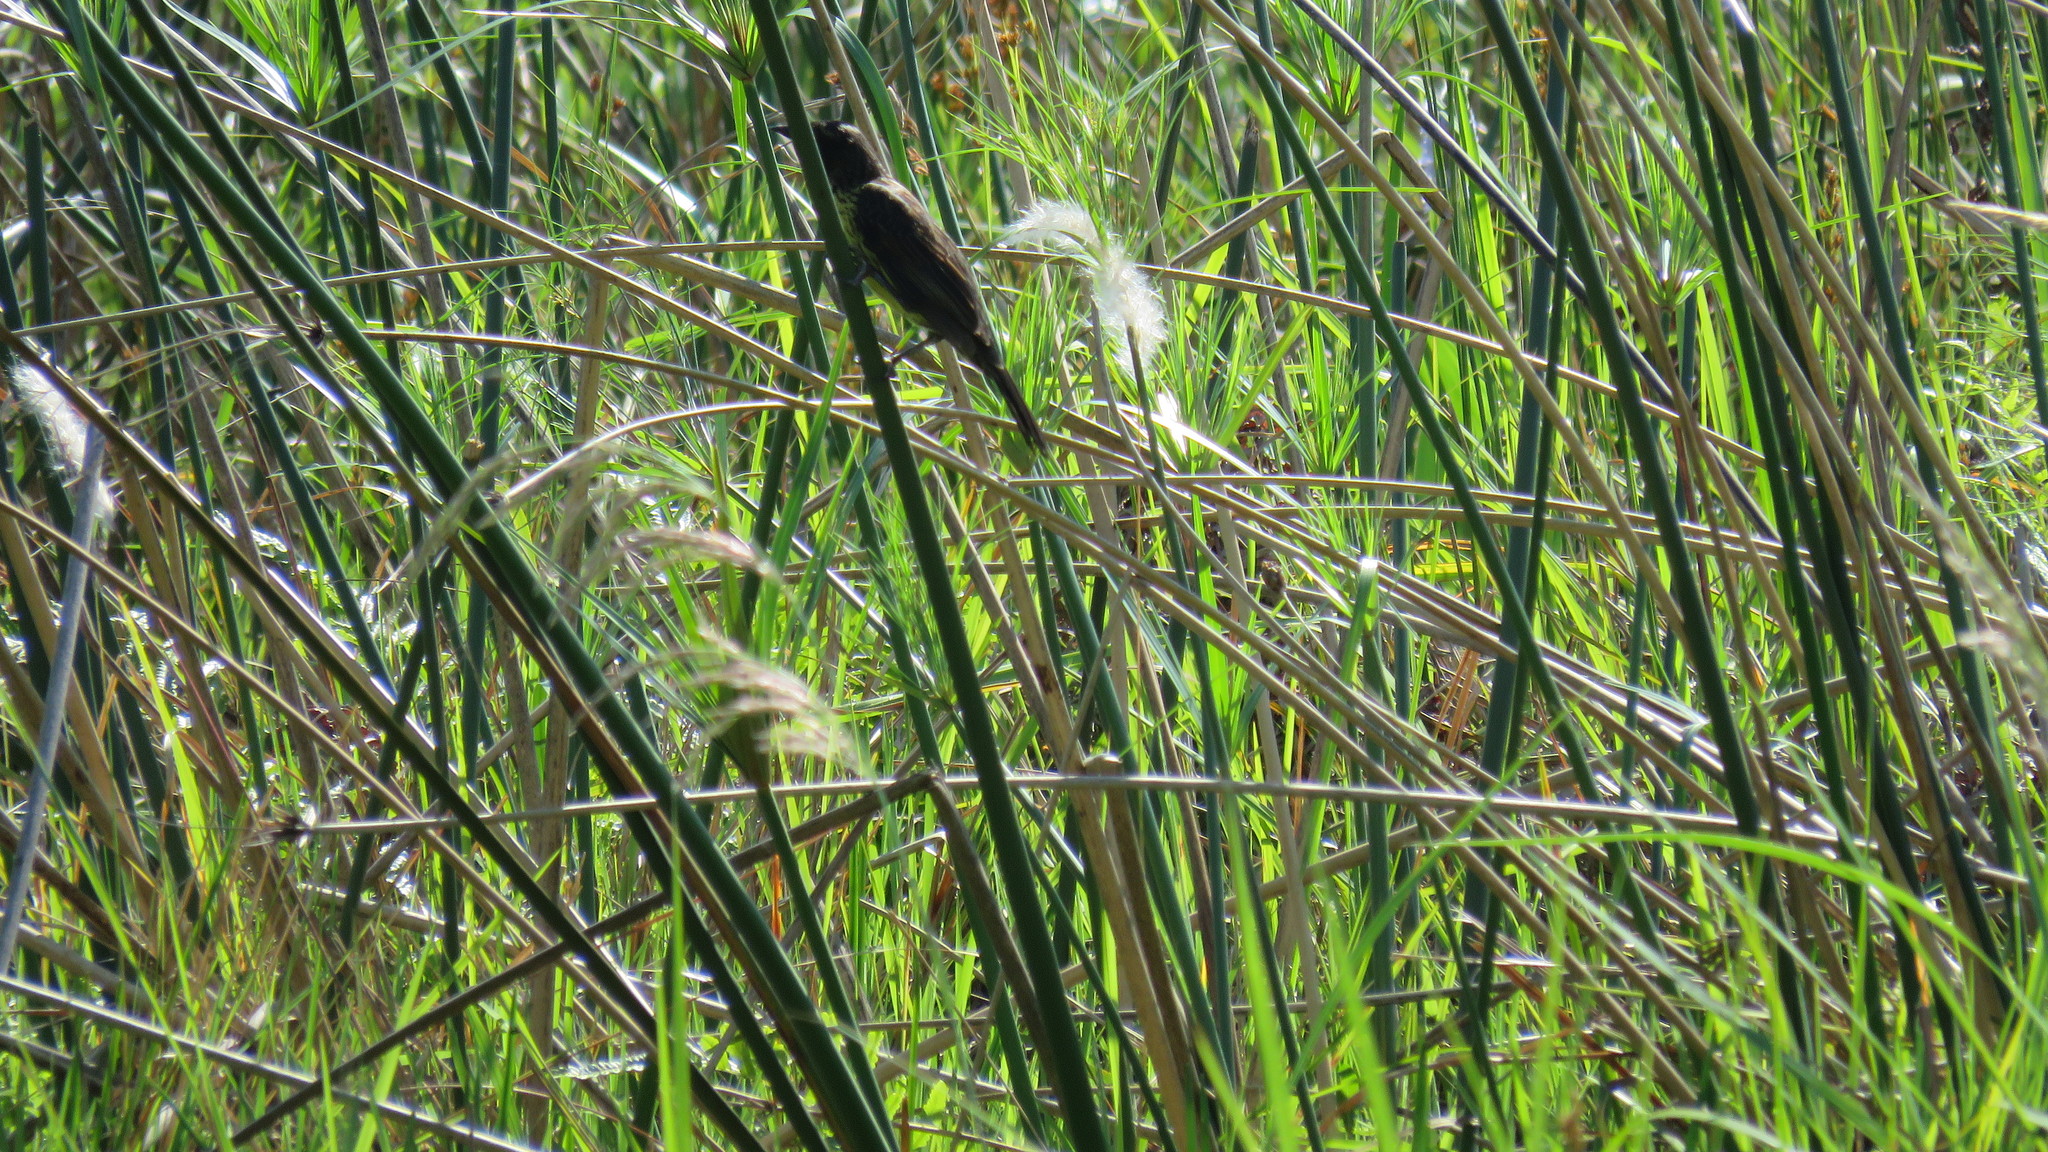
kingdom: Animalia
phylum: Chordata
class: Aves
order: Passeriformes
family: Icteridae
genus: Agelasticus
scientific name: Agelasticus cyanopus
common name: Unicolored blackbird
